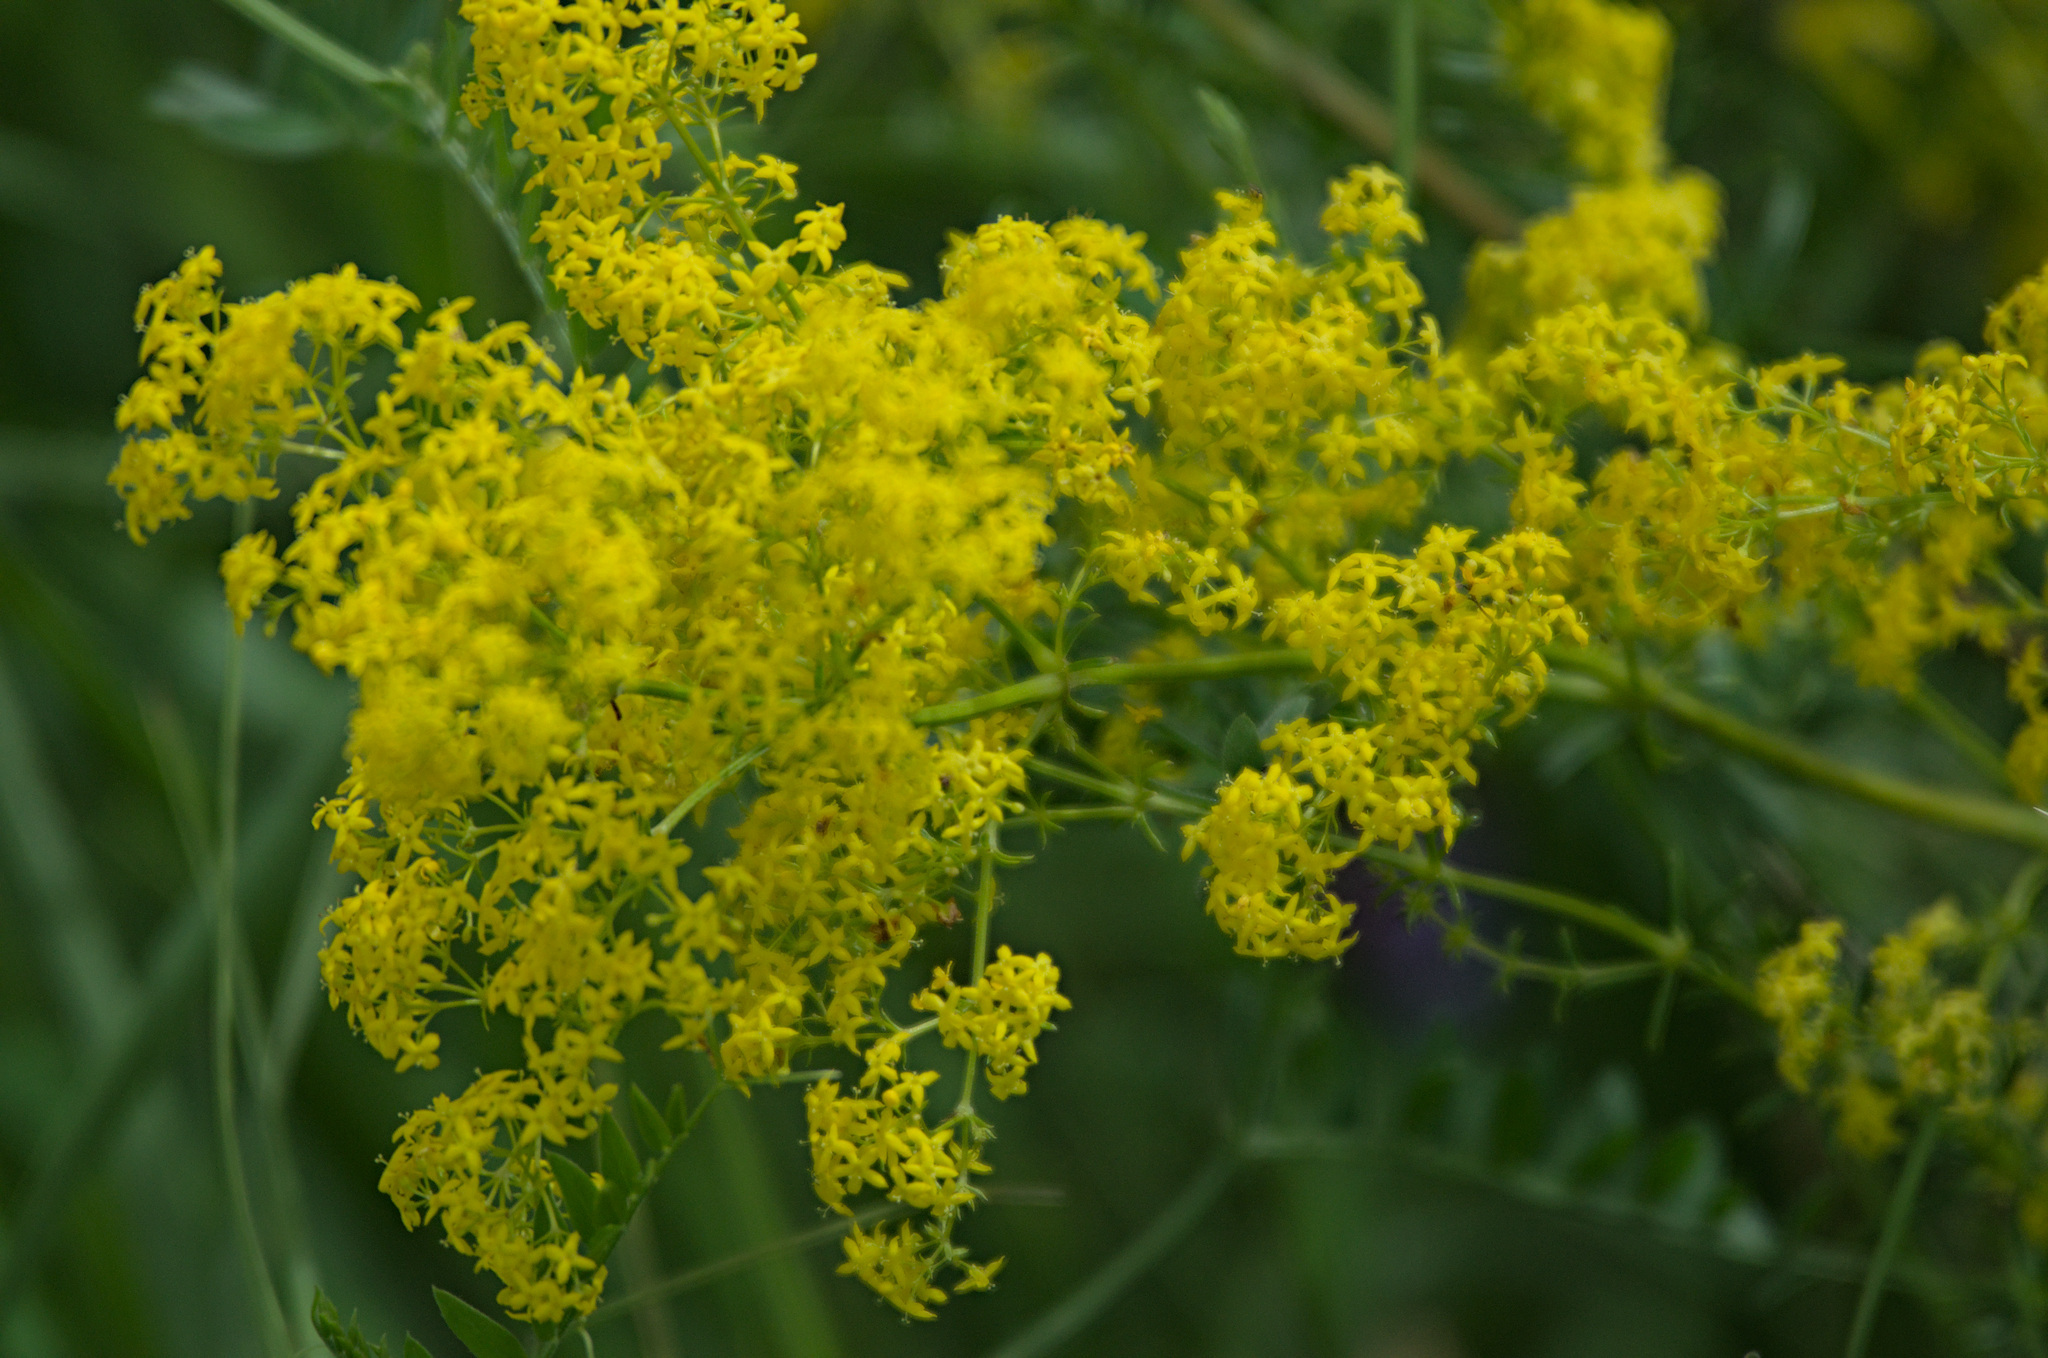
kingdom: Plantae
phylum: Tracheophyta
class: Magnoliopsida
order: Gentianales
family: Rubiaceae
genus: Galium
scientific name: Galium verum
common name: Lady's bedstraw
